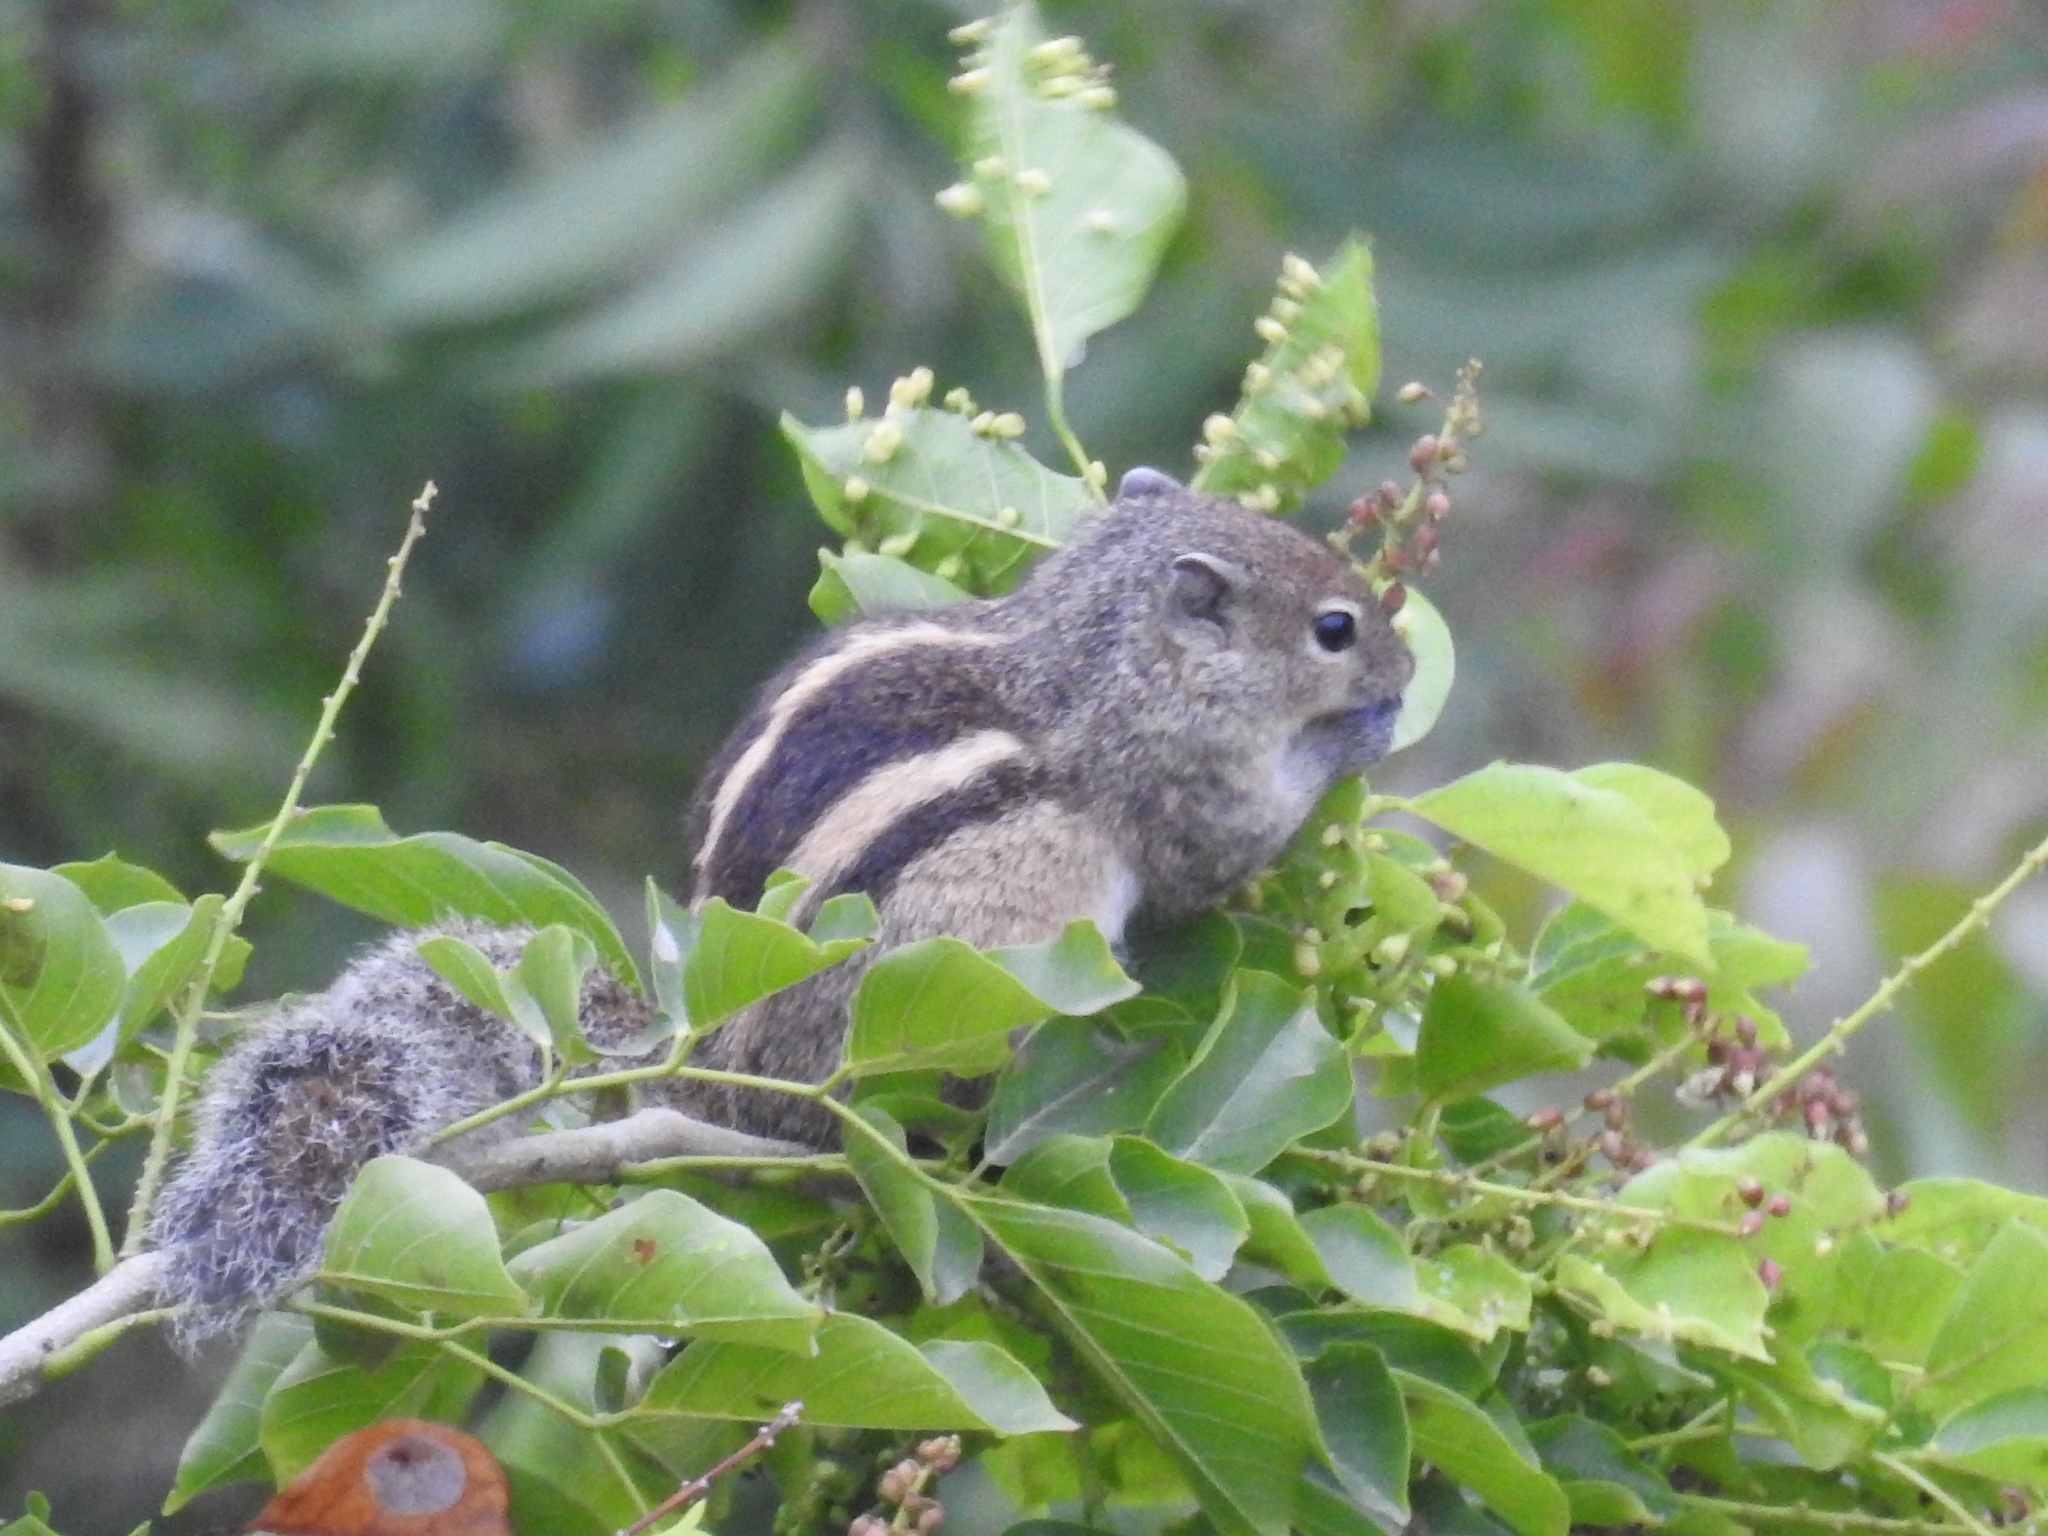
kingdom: Animalia
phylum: Chordata
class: Mammalia
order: Rodentia
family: Sciuridae
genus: Funambulus
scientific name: Funambulus palmarum
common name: Indian palm squirrel
